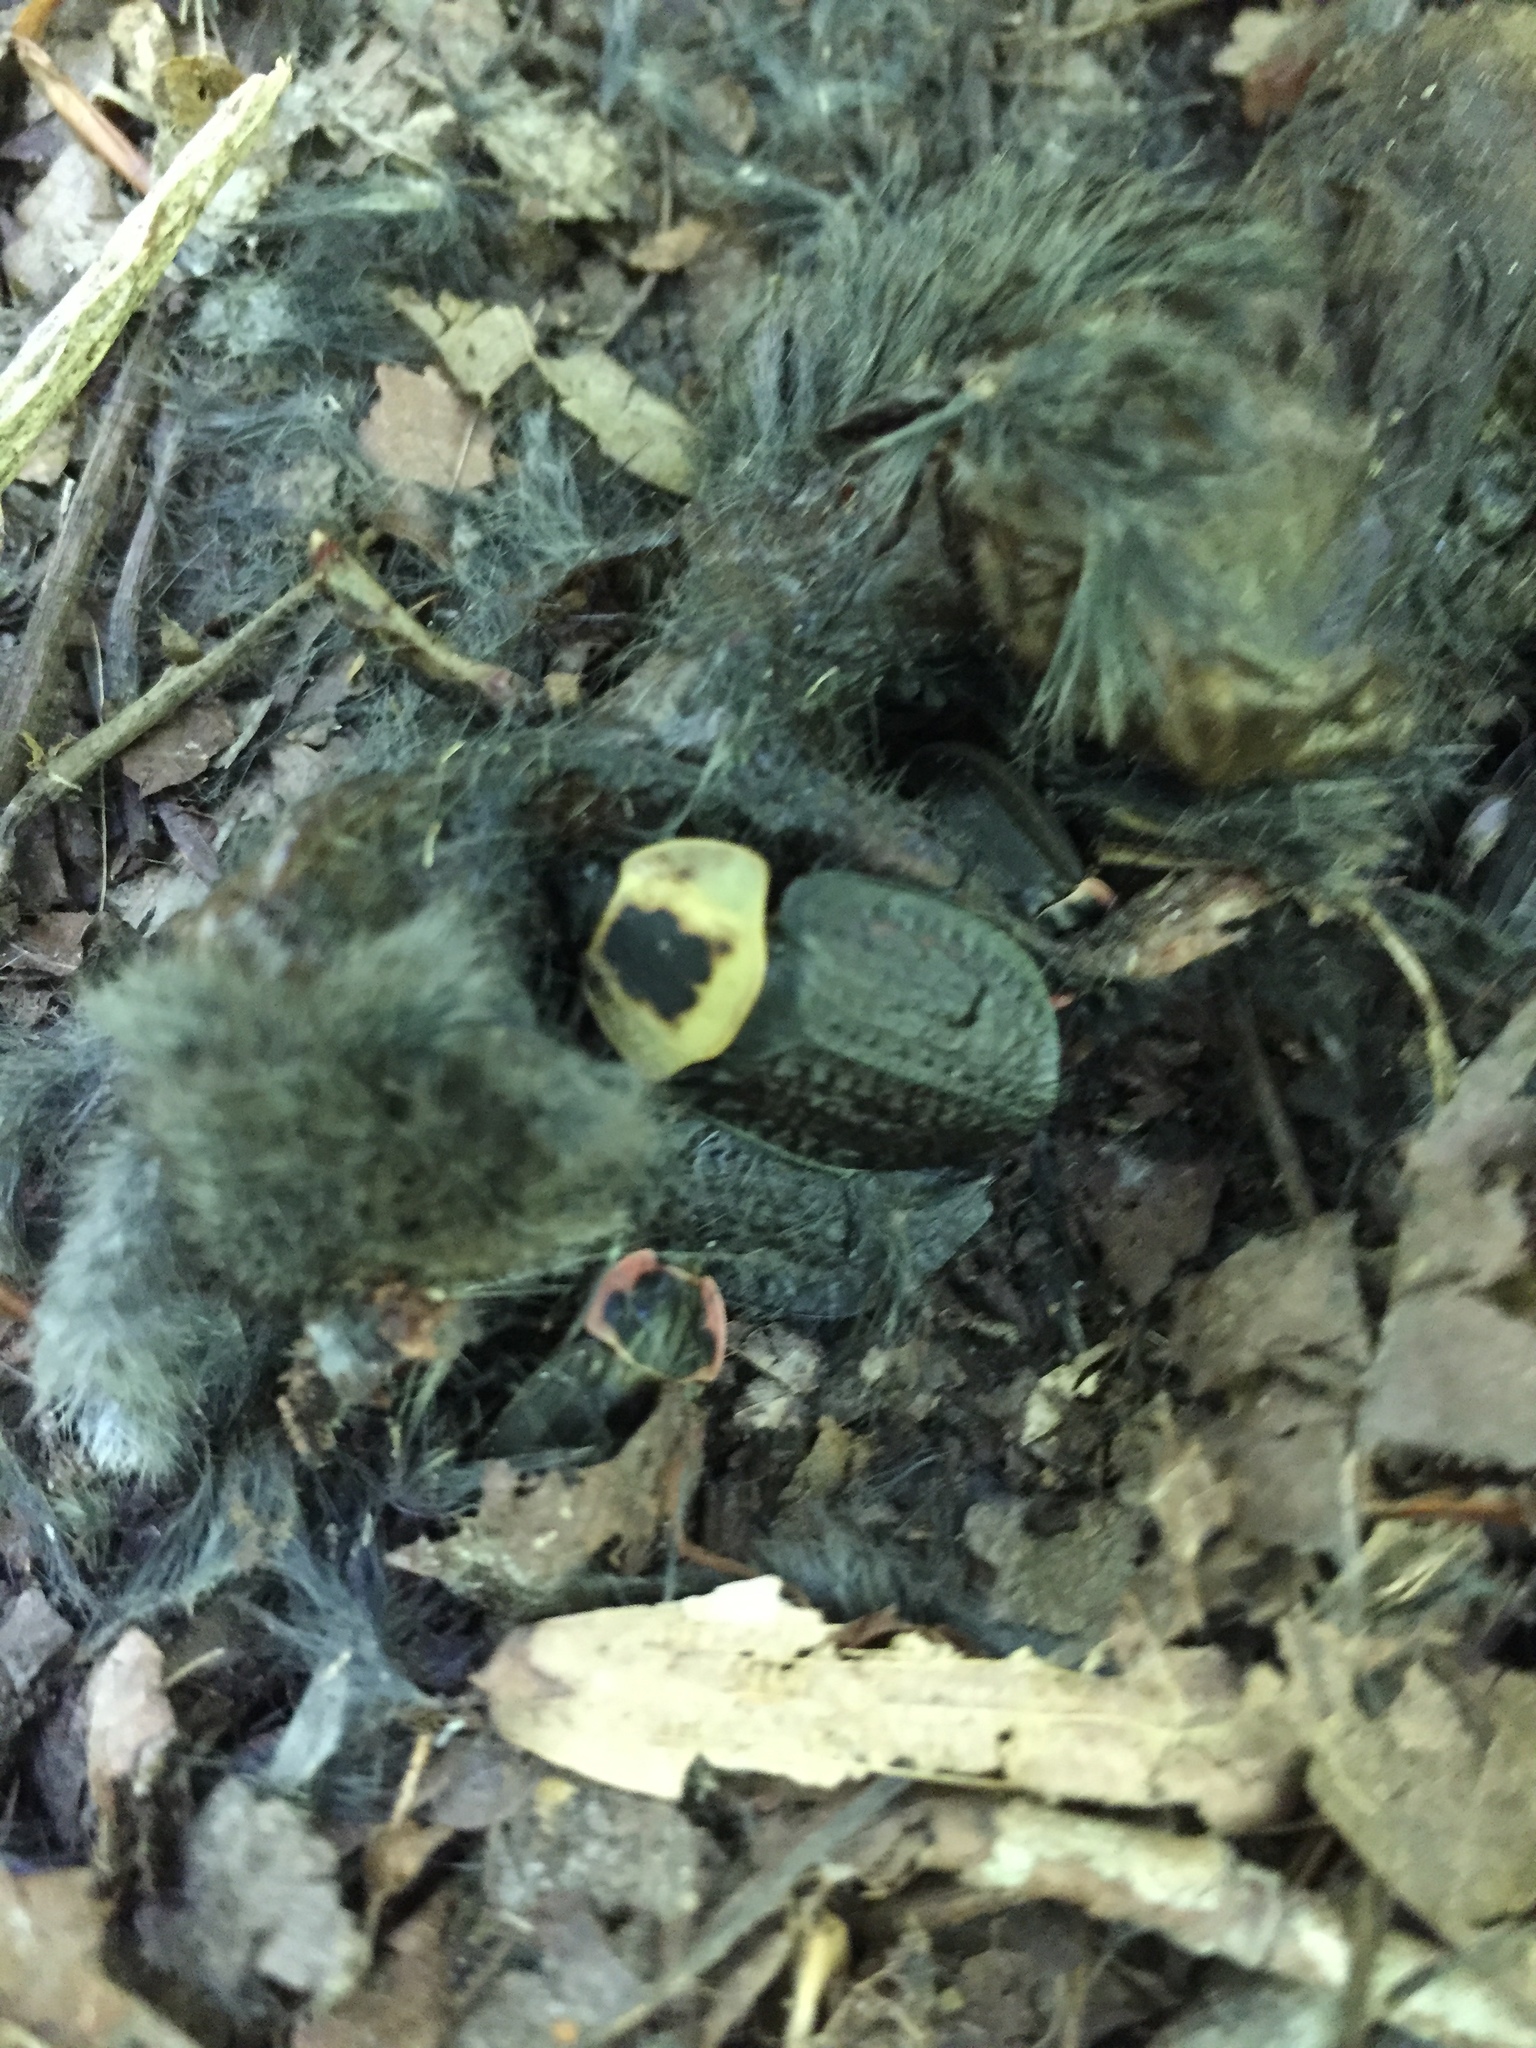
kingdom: Animalia
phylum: Arthropoda
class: Insecta
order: Coleoptera
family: Staphylinidae
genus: Necrophila
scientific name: Necrophila americana
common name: American carrion beetle
